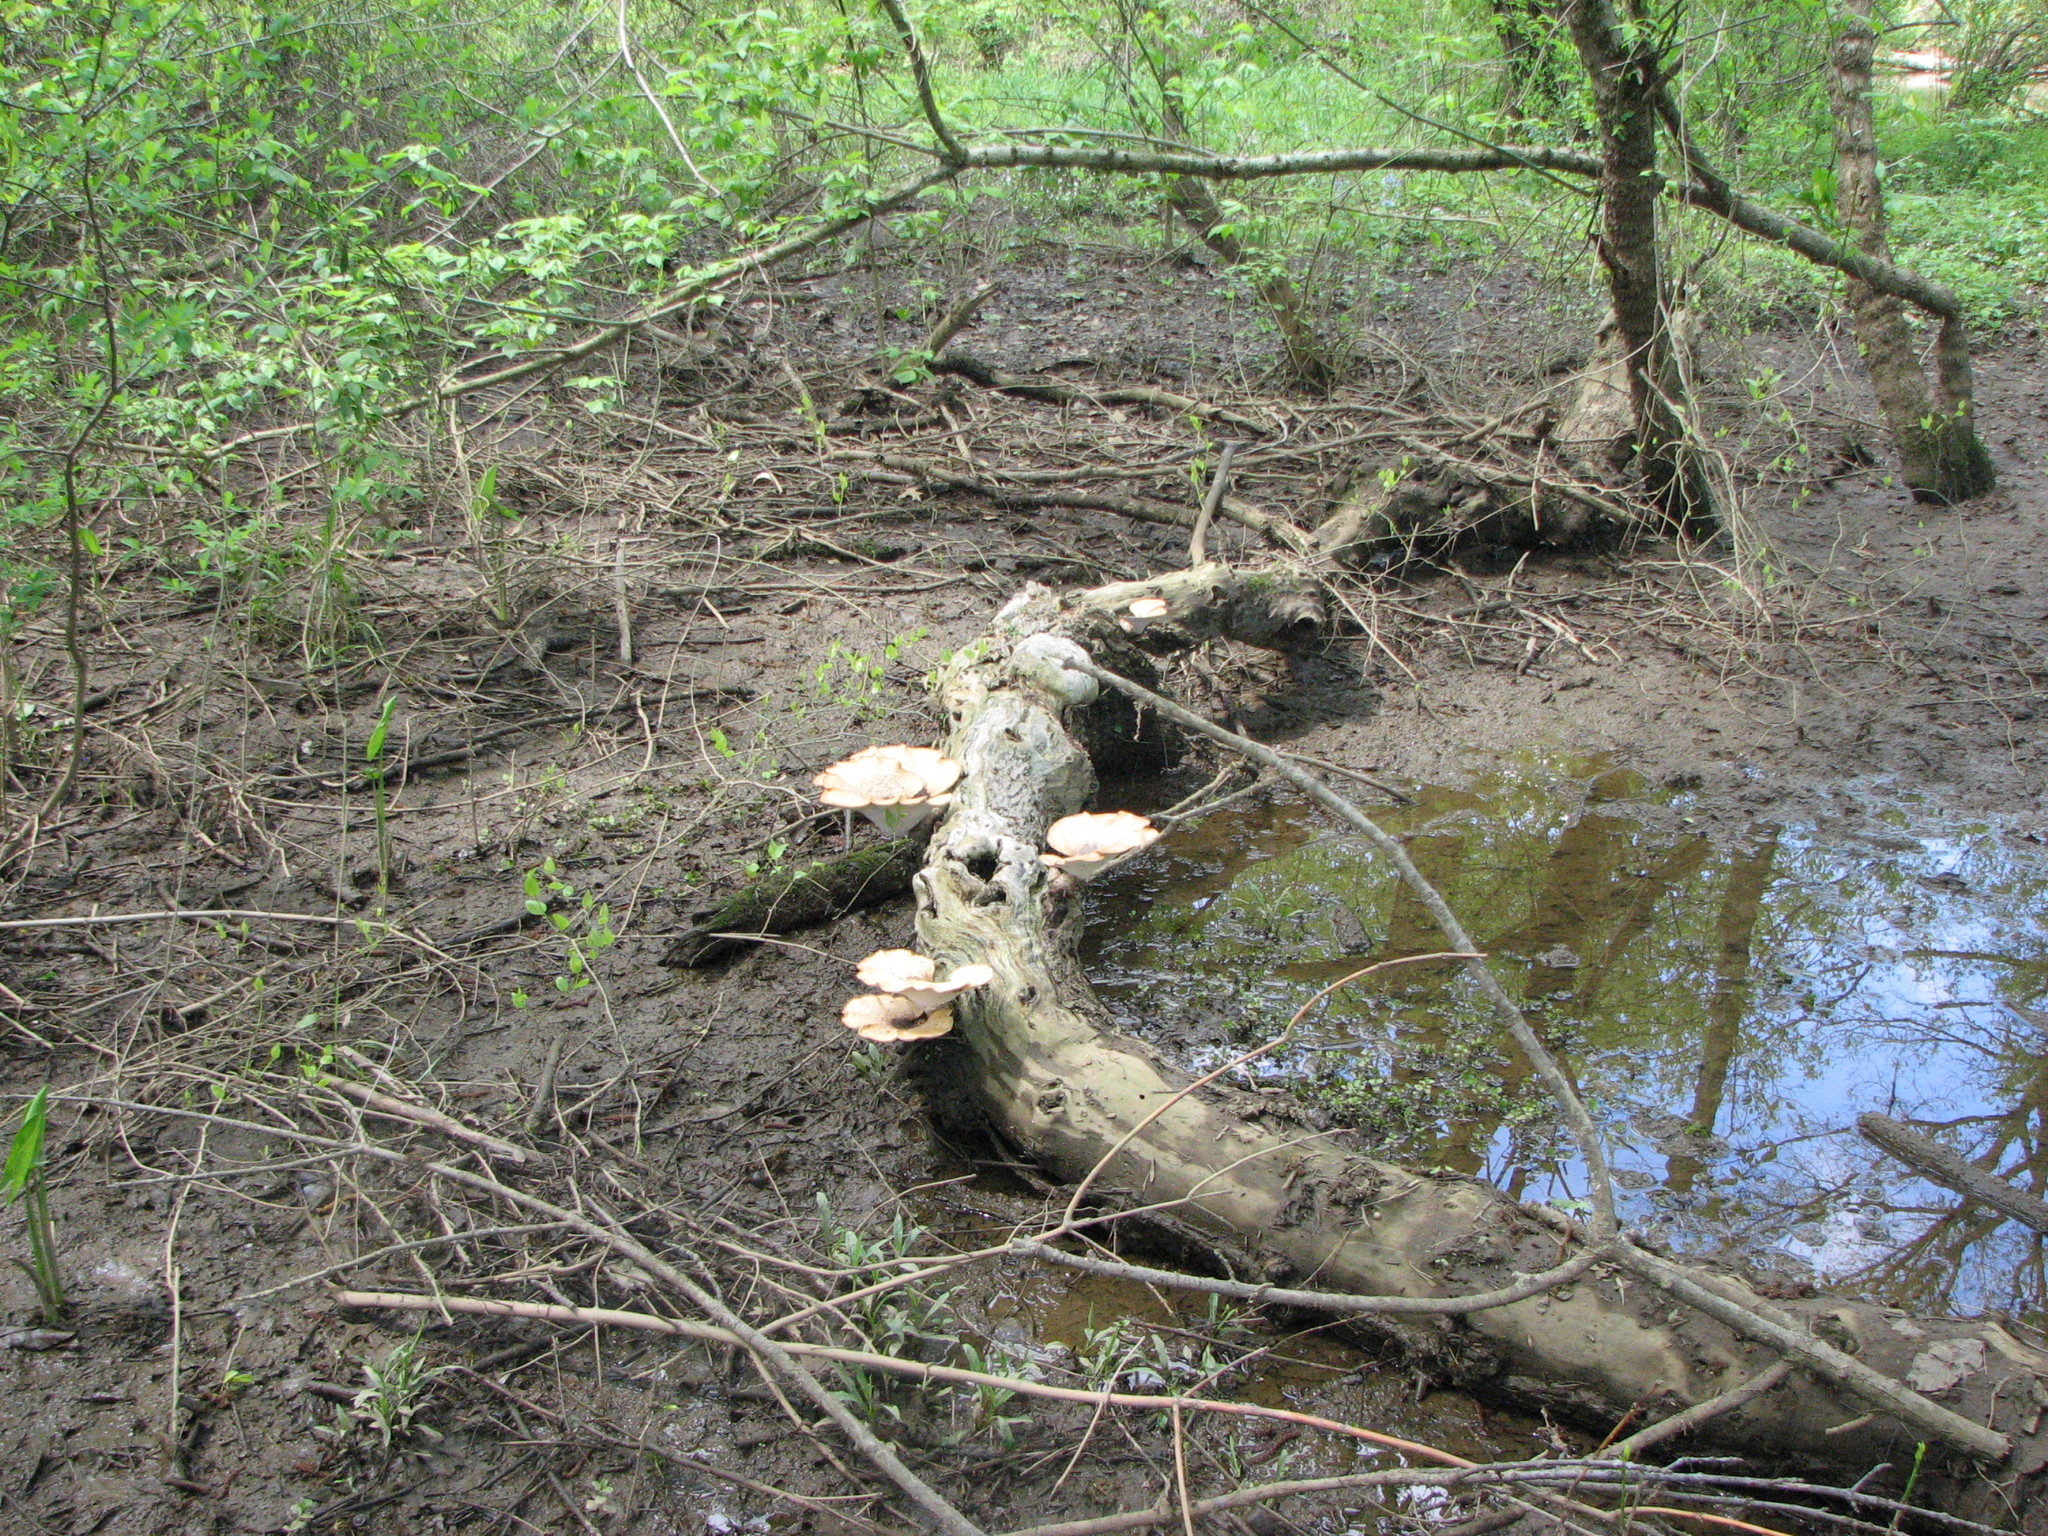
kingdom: Fungi
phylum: Basidiomycota
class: Agaricomycetes
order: Polyporales
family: Polyporaceae
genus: Cerioporus
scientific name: Cerioporus squamosus
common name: Dryad's saddle
